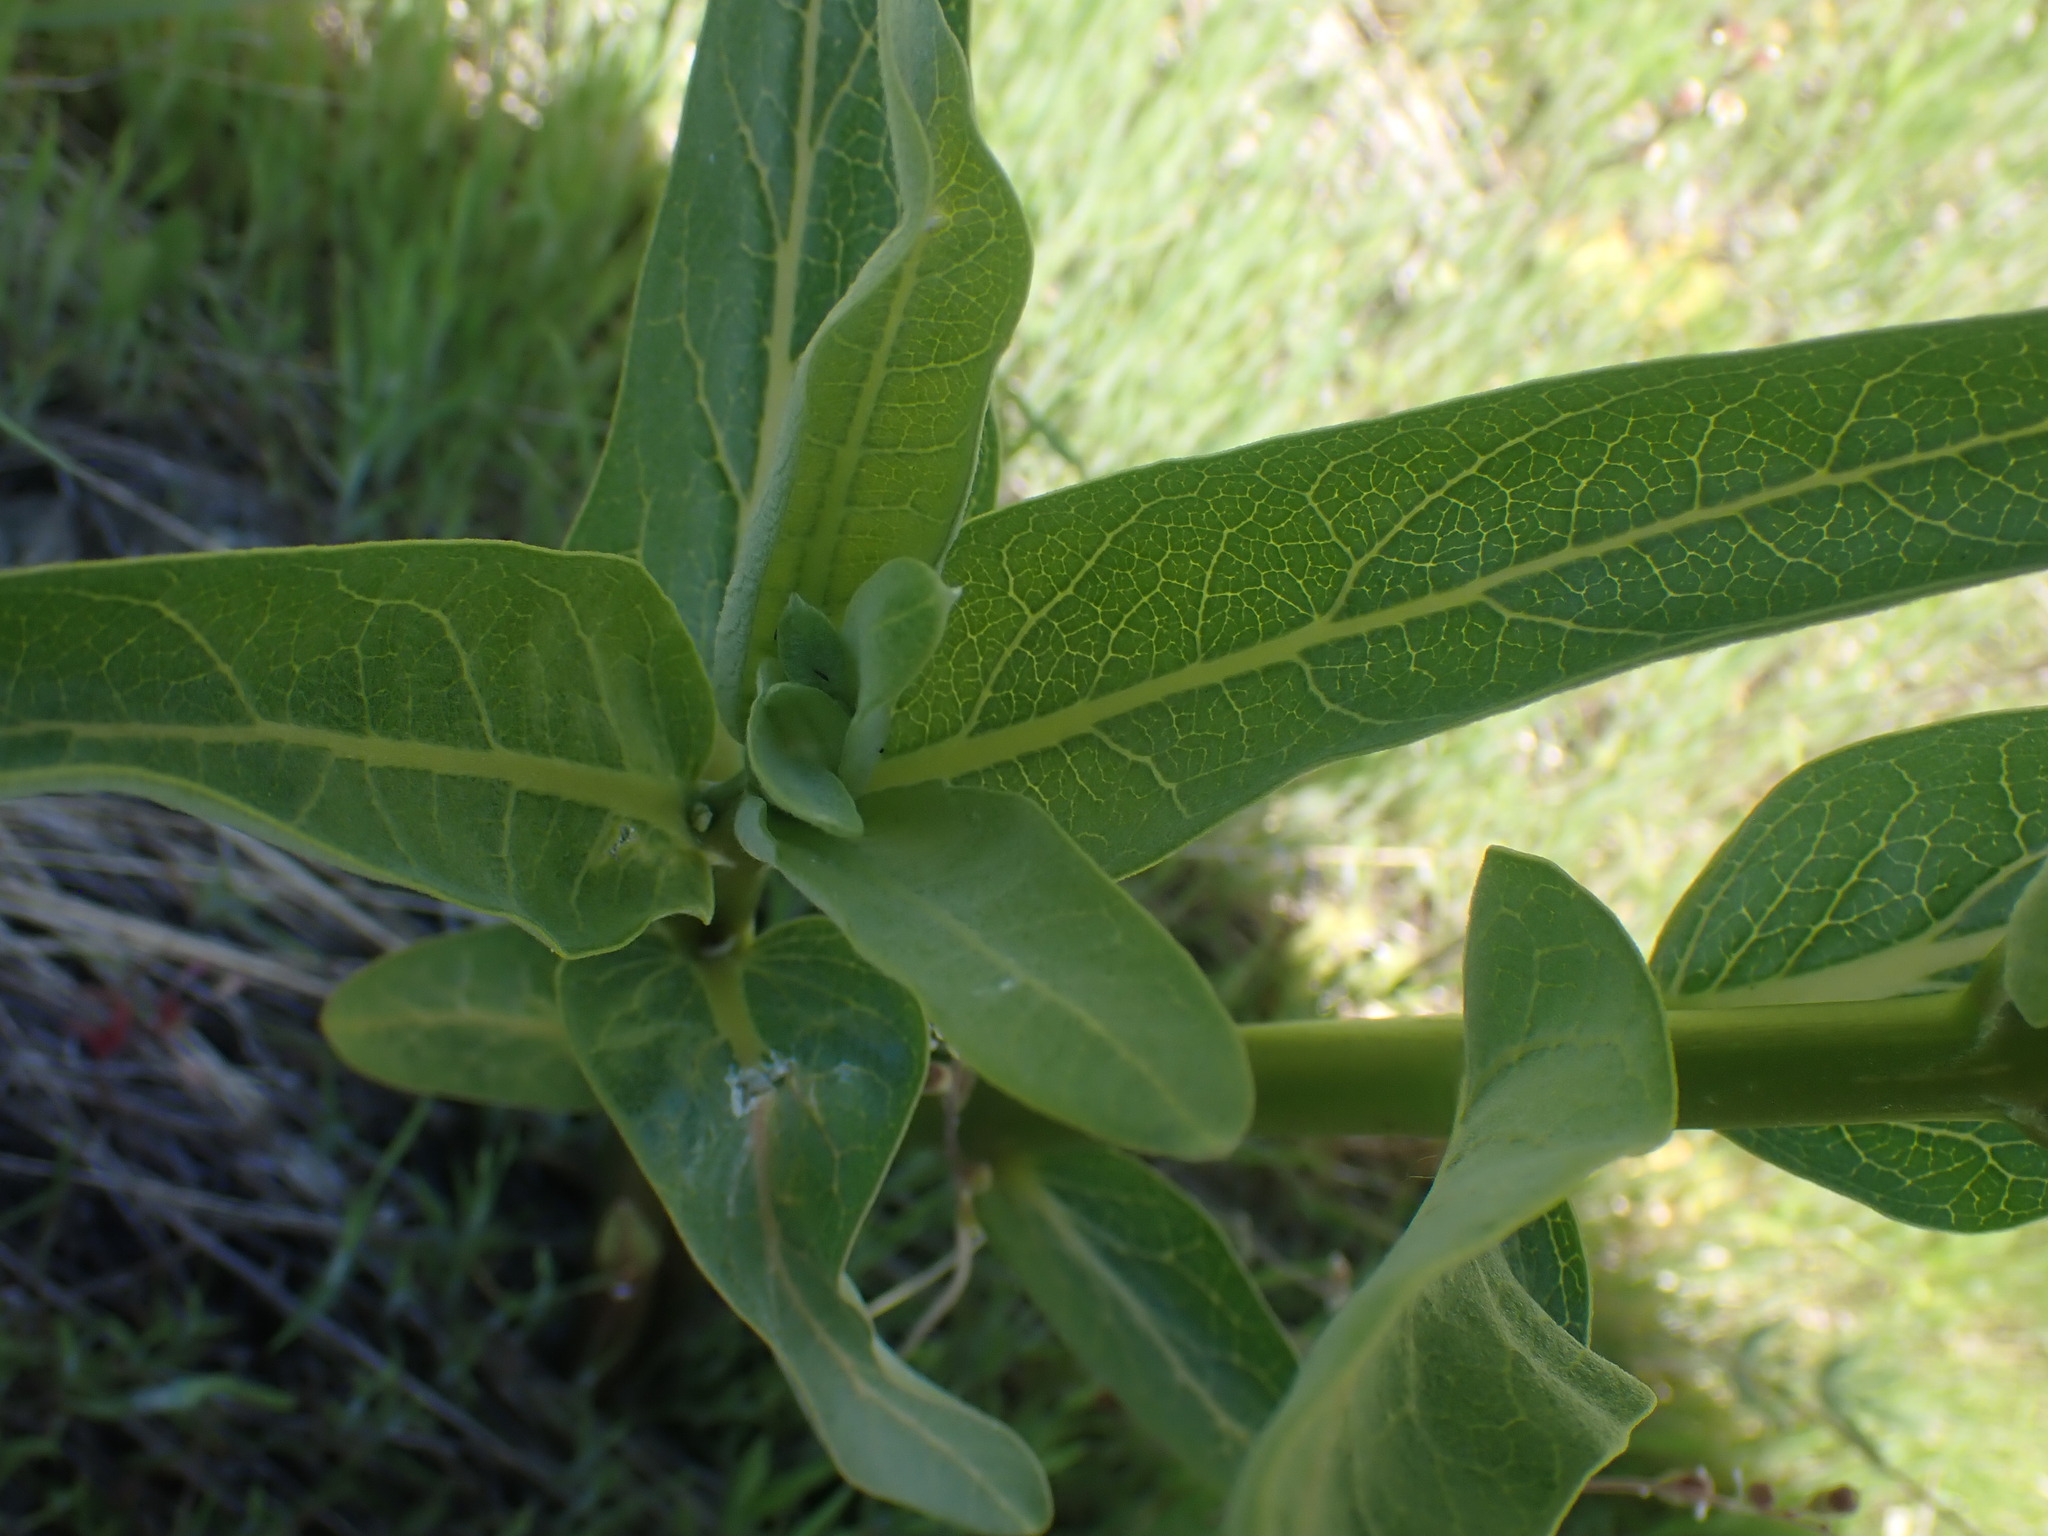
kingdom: Plantae
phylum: Tracheophyta
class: Magnoliopsida
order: Gentianales
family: Apocynaceae
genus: Asclepias
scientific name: Asclepias speciosa
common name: Showy milkweed
